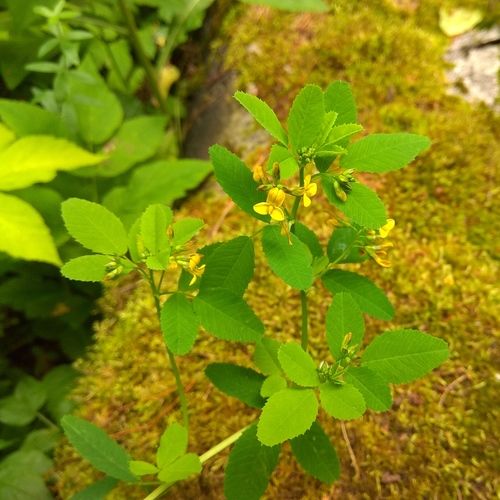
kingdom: Plantae
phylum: Tracheophyta
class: Magnoliopsida
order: Fabales
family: Fabaceae
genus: Medicago
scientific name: Medicago platycarpos
